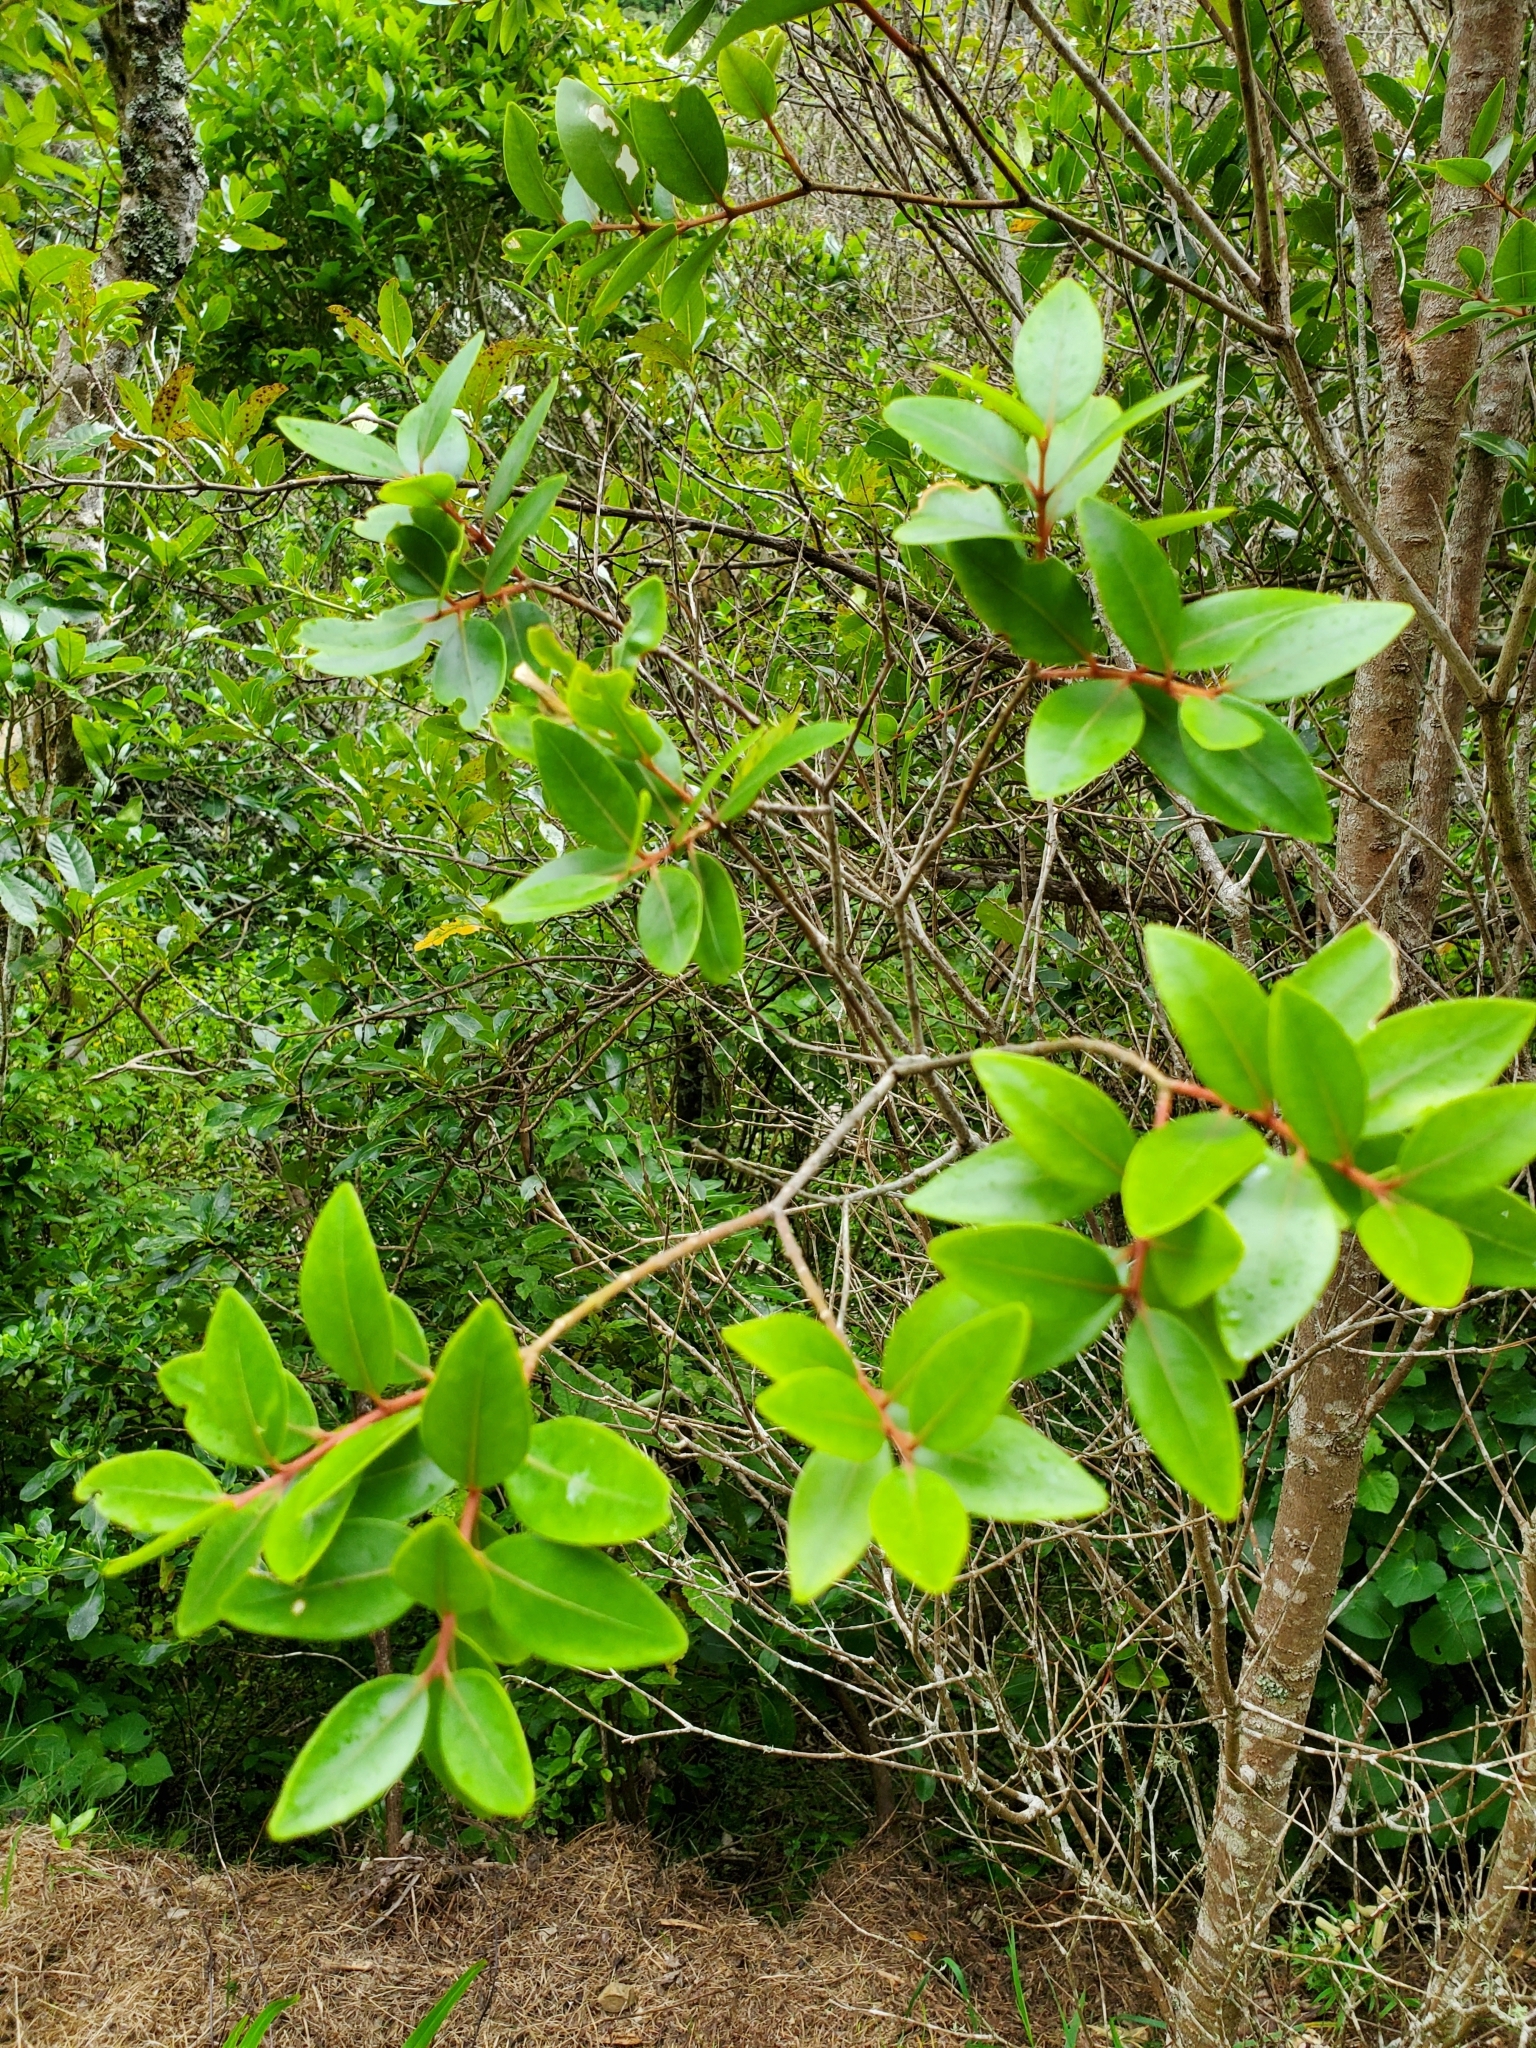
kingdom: Plantae
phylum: Tracheophyta
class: Magnoliopsida
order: Myrtales
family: Myrtaceae
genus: Metrosideros
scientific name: Metrosideros robusta
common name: Northern rata
